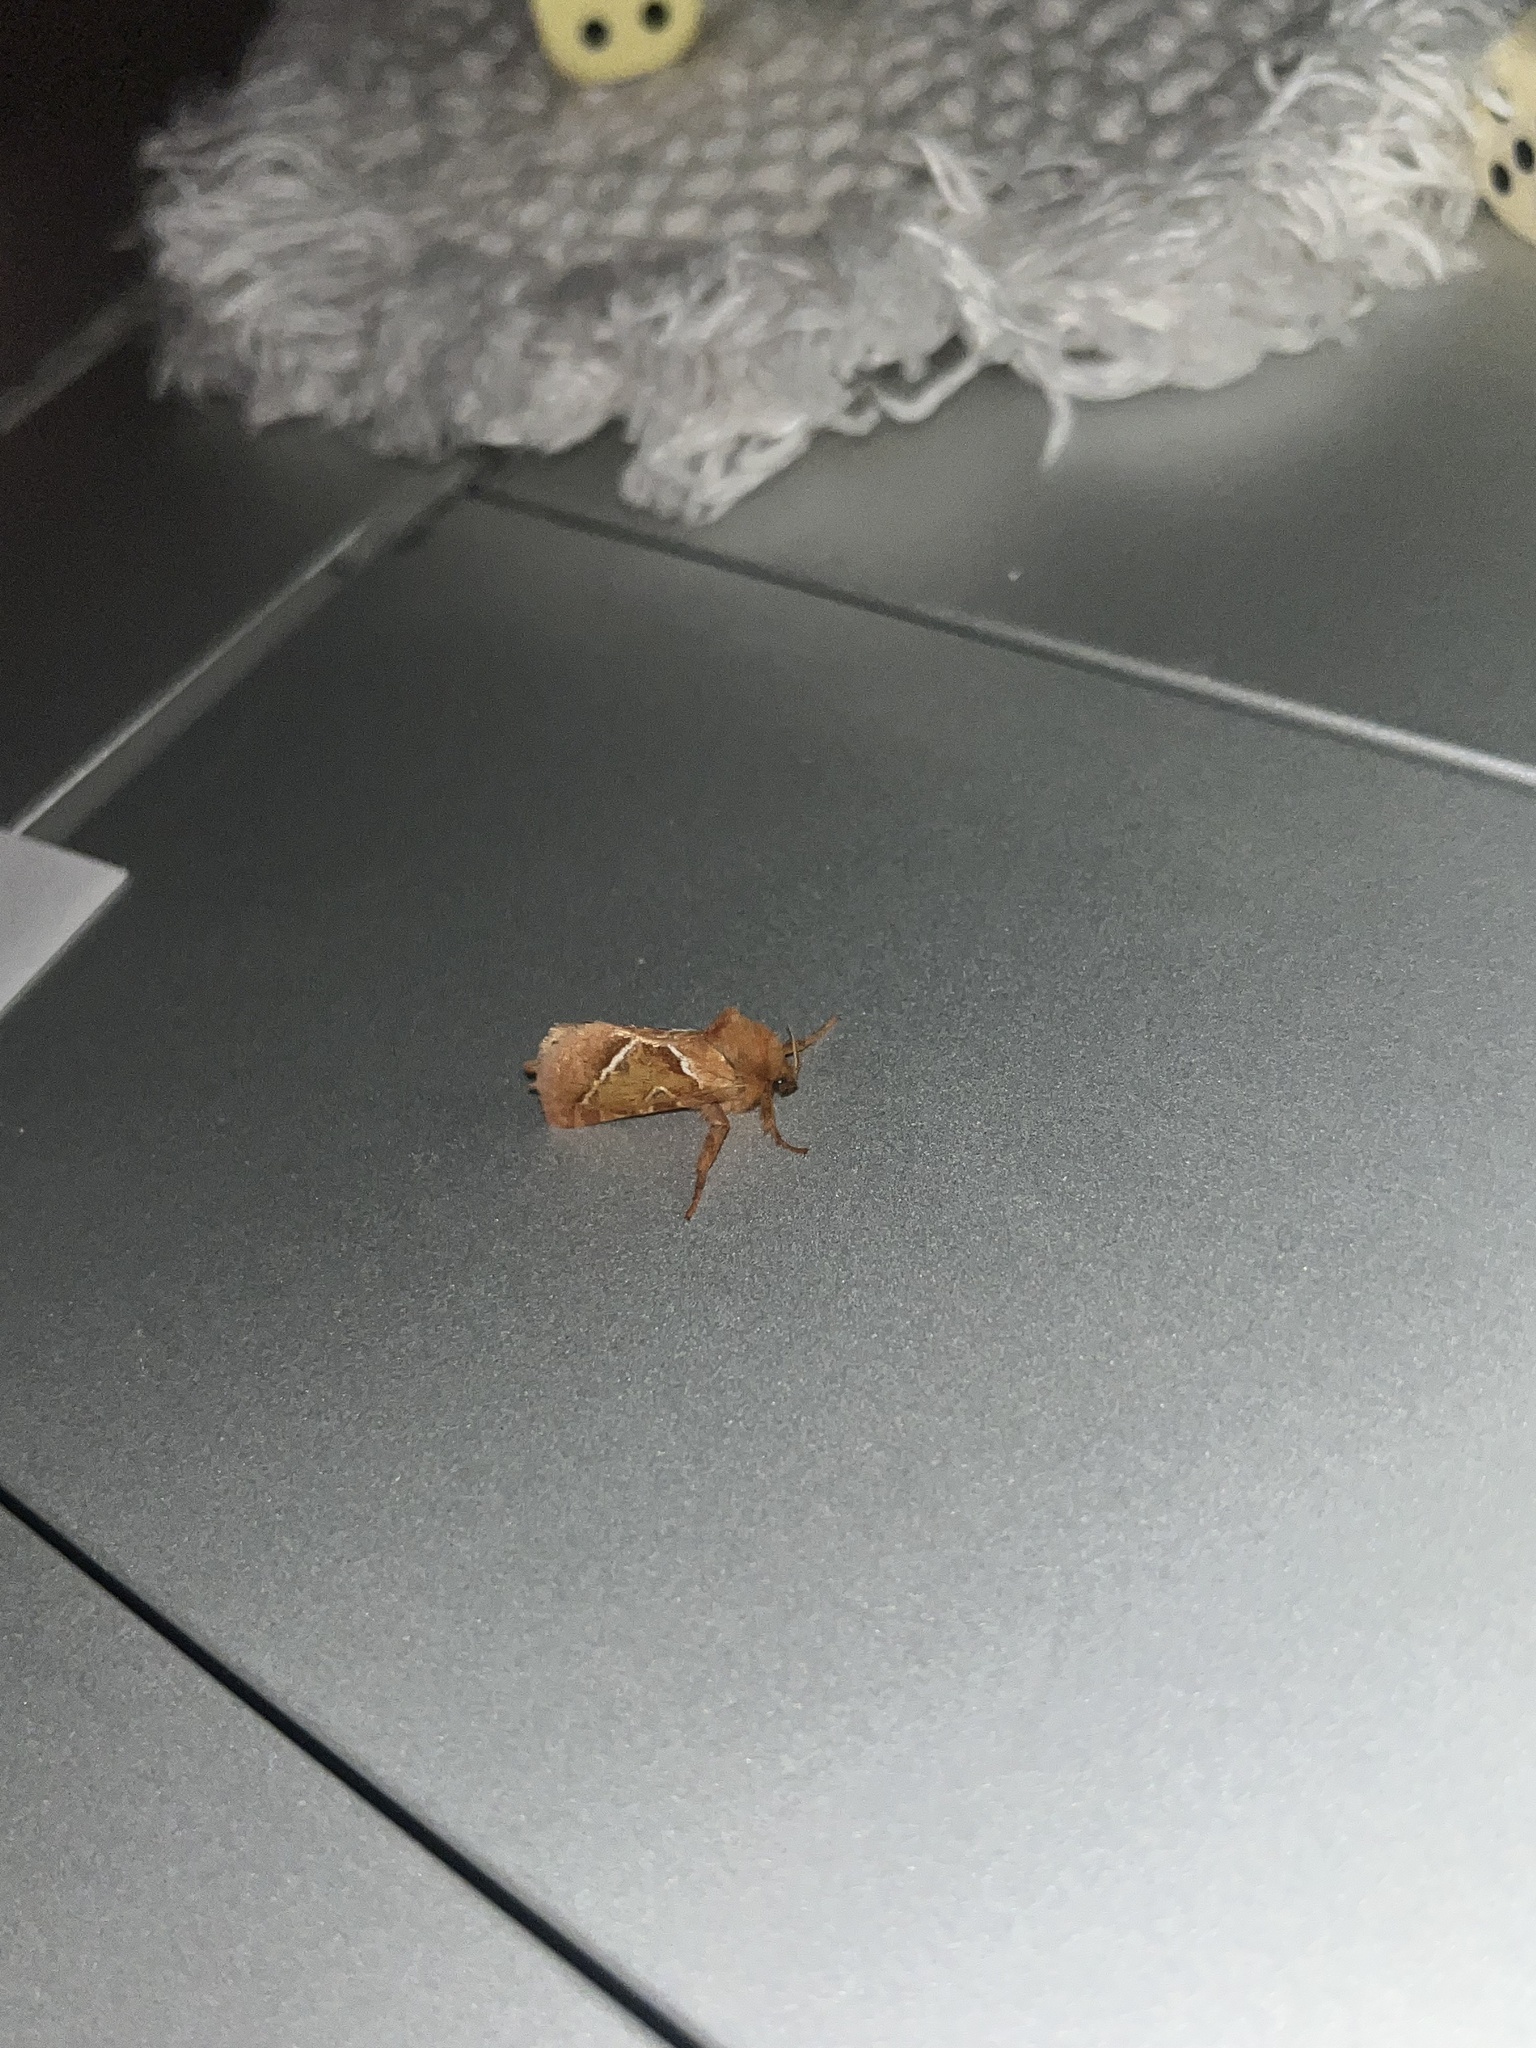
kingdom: Animalia
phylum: Arthropoda
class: Insecta
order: Lepidoptera
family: Hepialidae
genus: Triodia
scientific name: Triodia sylvina
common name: Orange swift
